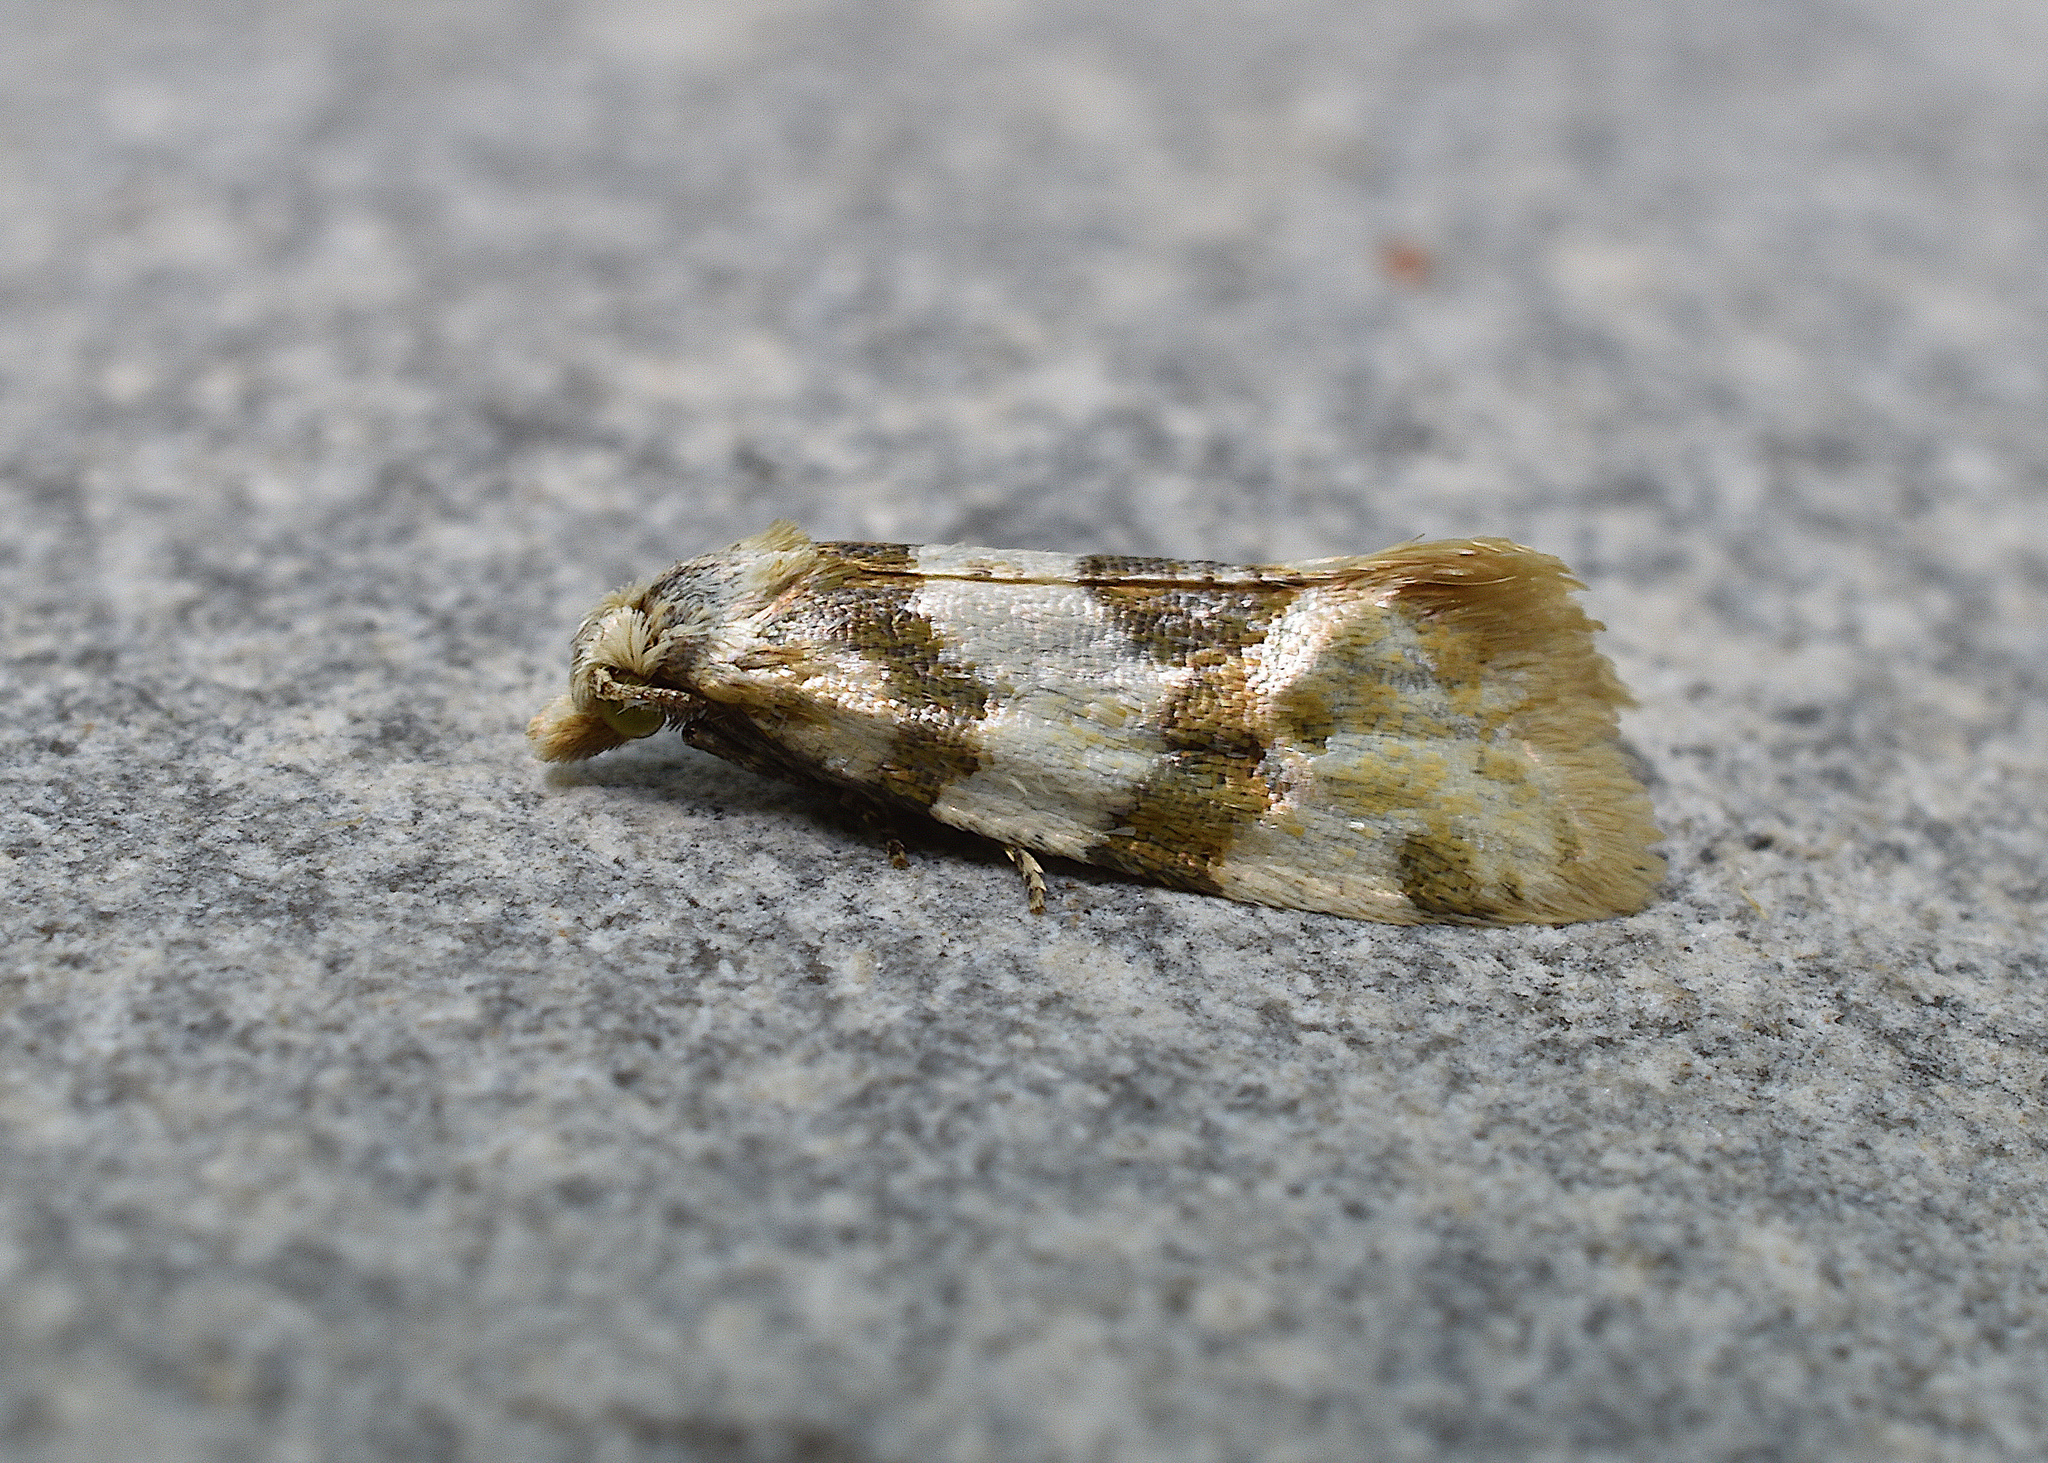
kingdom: Animalia
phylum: Arthropoda
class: Insecta
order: Lepidoptera
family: Tortricidae
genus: Aethes
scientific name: Aethes argentilimitana
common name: Silver-bordered aethes
